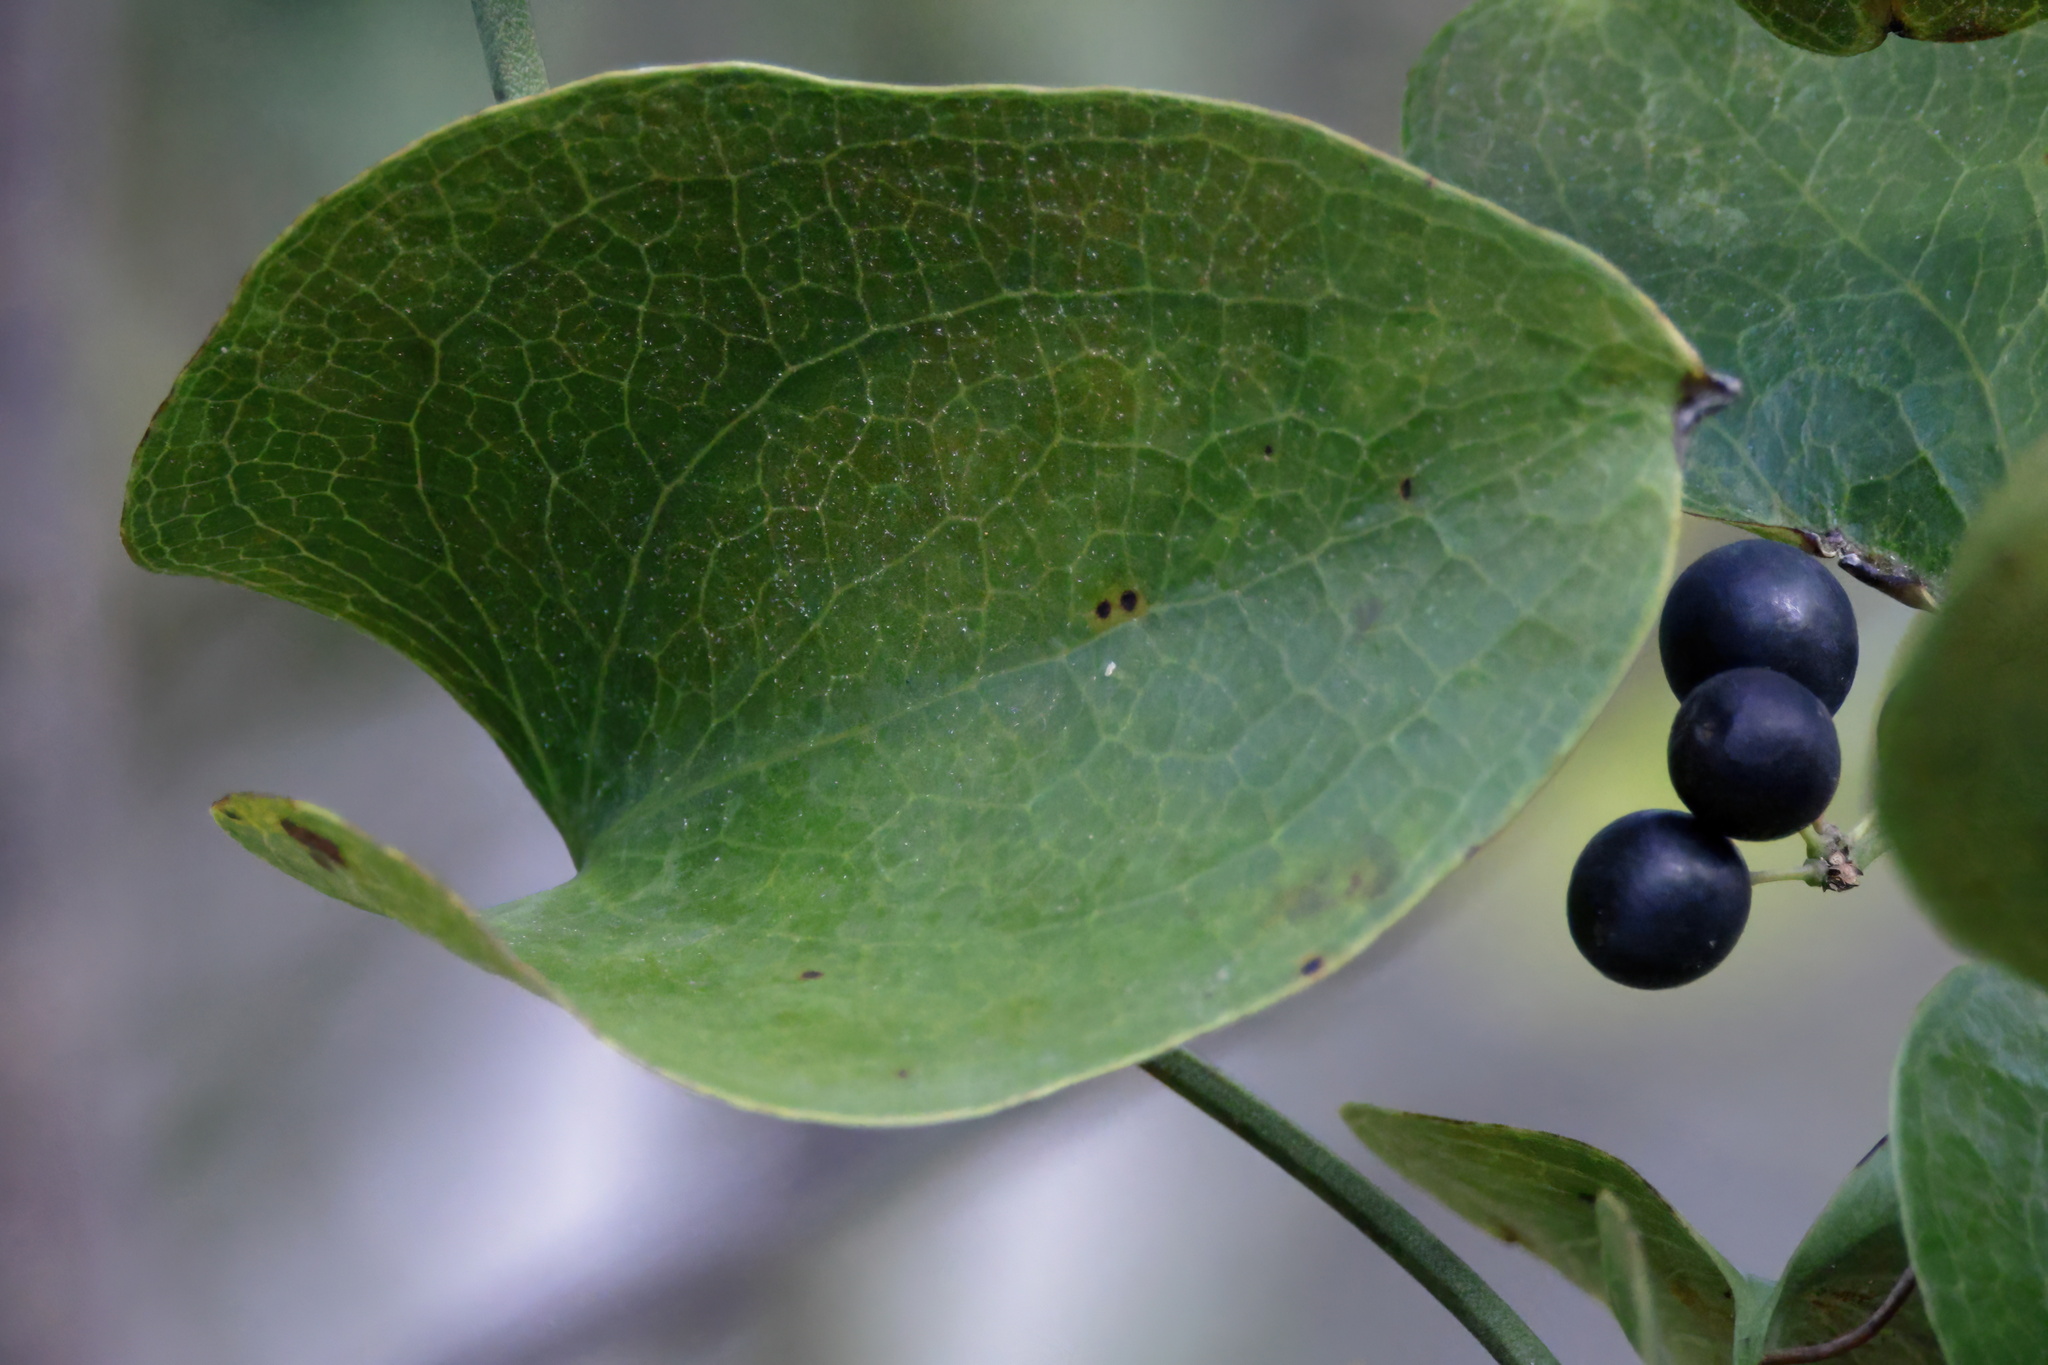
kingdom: Plantae
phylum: Tracheophyta
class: Liliopsida
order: Liliales
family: Smilacaceae
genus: Smilax
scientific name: Smilax bona-nox
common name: Catbrier
